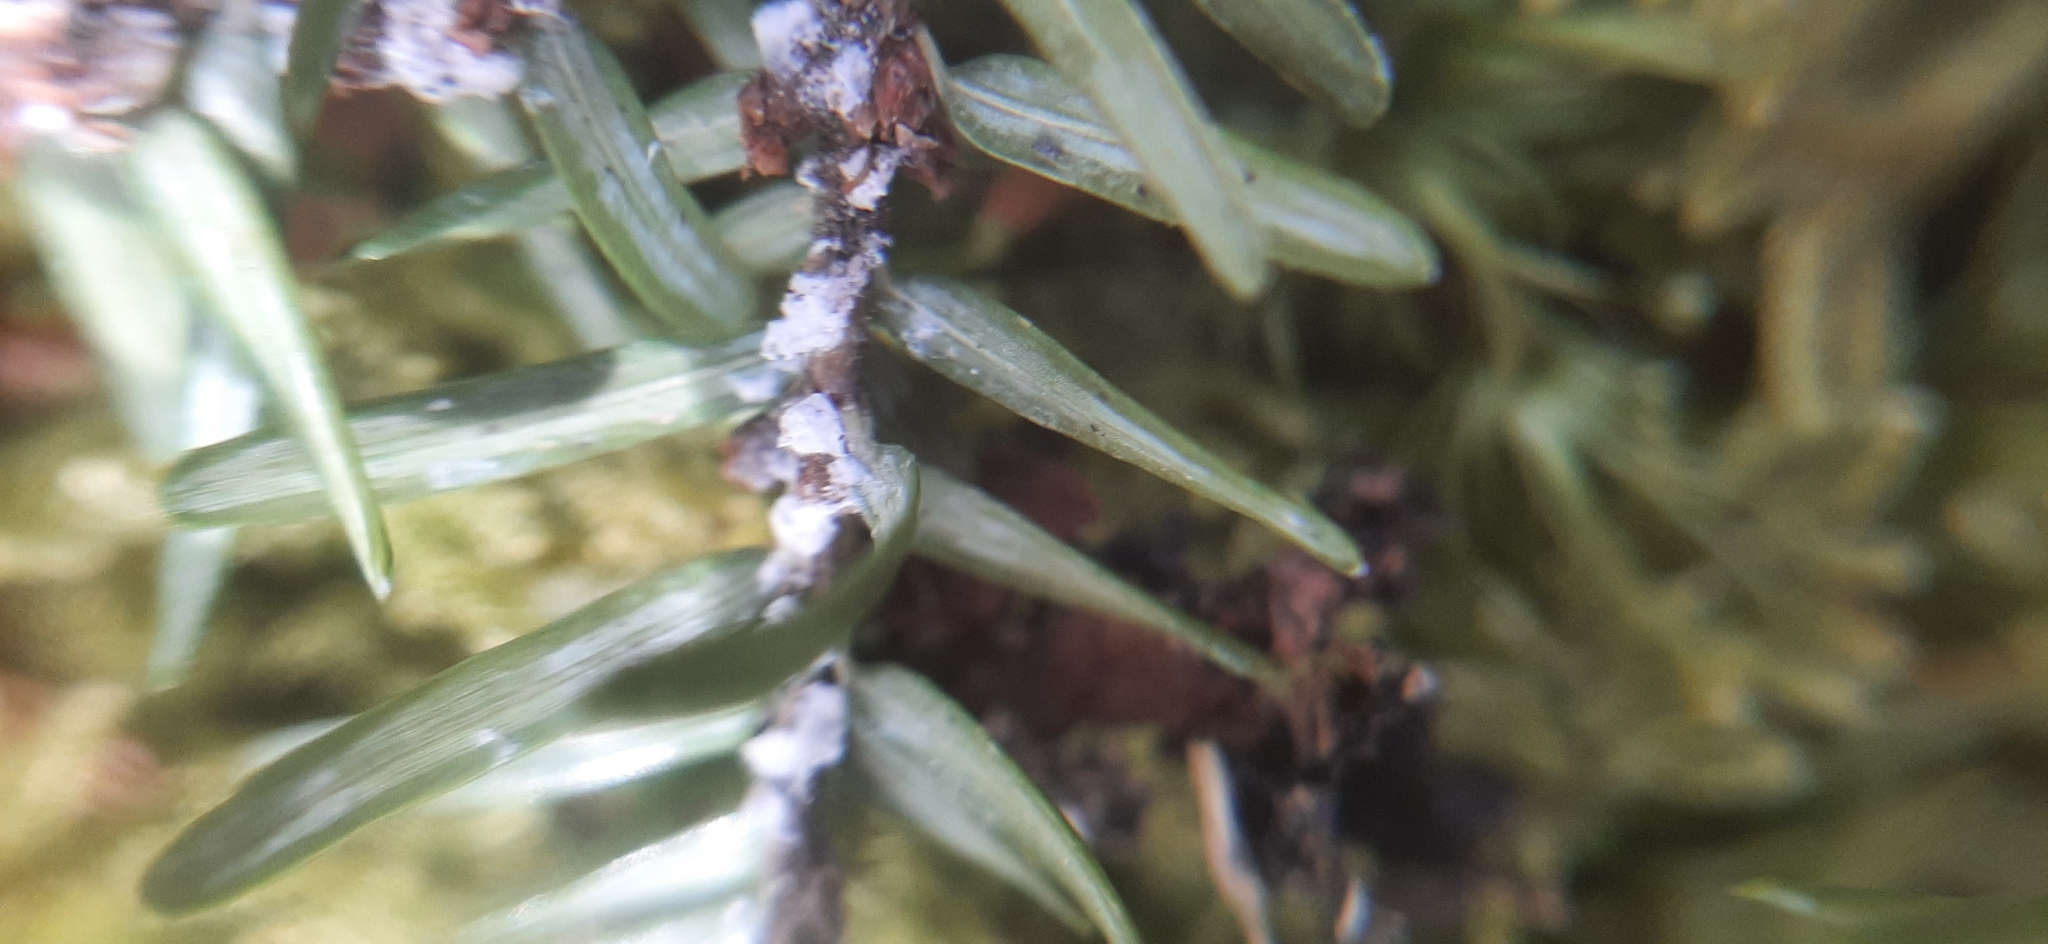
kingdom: Animalia
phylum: Arthropoda
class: Insecta
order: Hemiptera
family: Adelgidae
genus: Adelges
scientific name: Adelges tsugae
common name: Hemlock woolly adelgid
